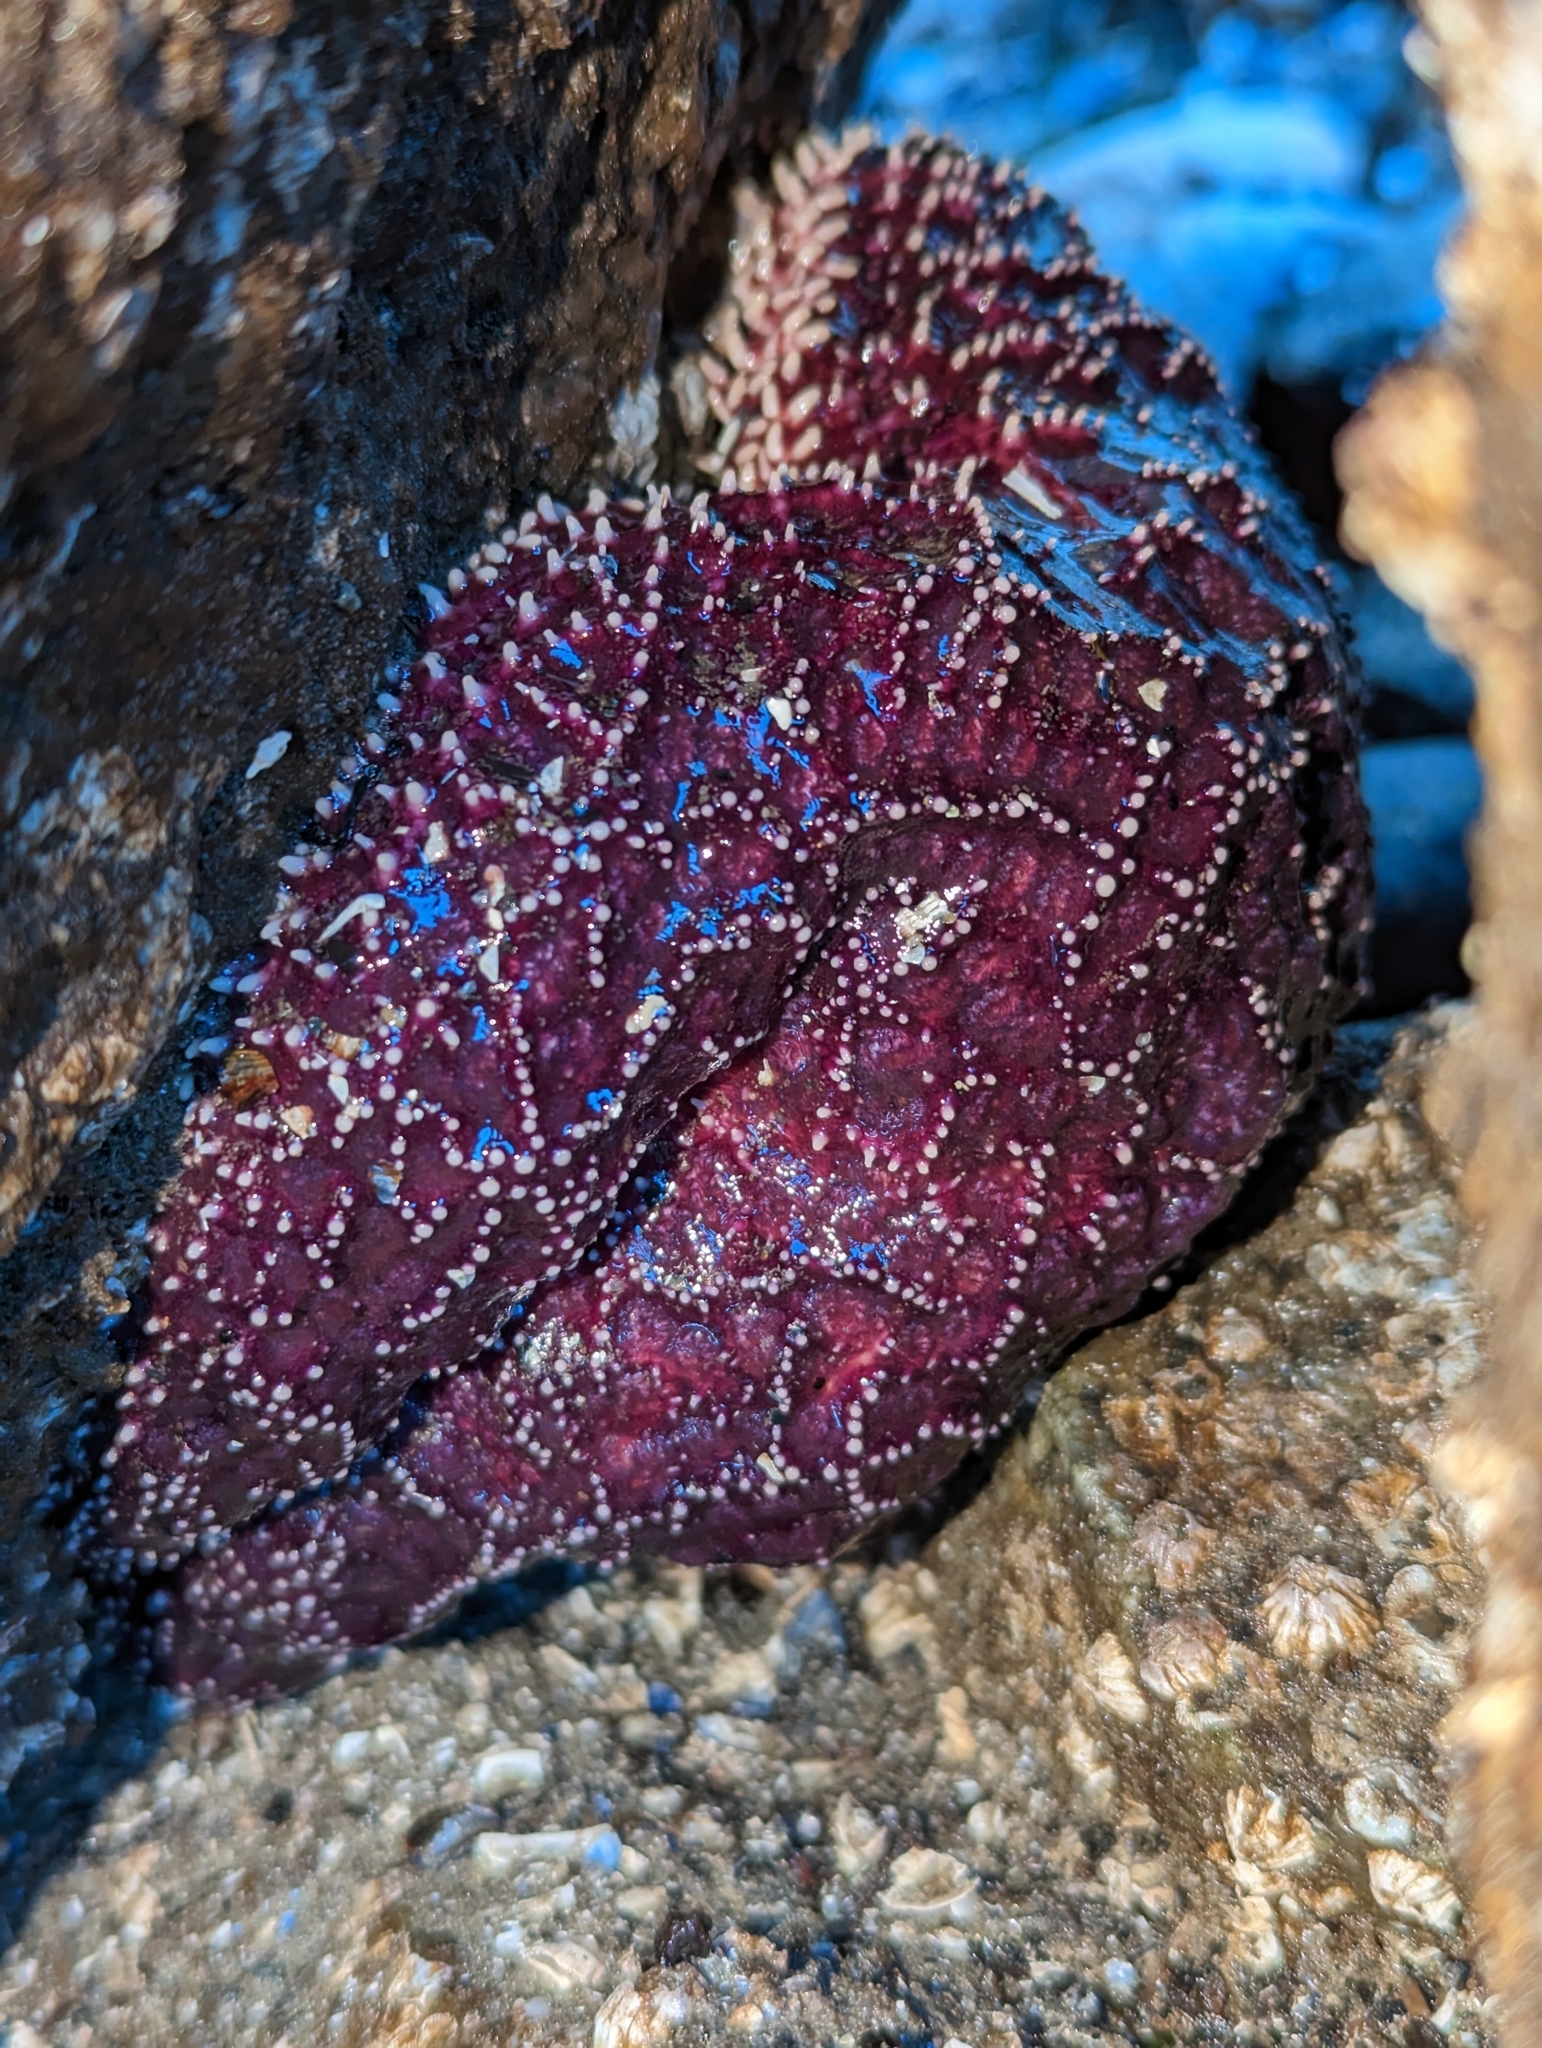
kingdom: Animalia
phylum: Echinodermata
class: Asteroidea
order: Forcipulatida
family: Asteriidae
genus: Pisaster
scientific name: Pisaster ochraceus
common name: Ochre stars
